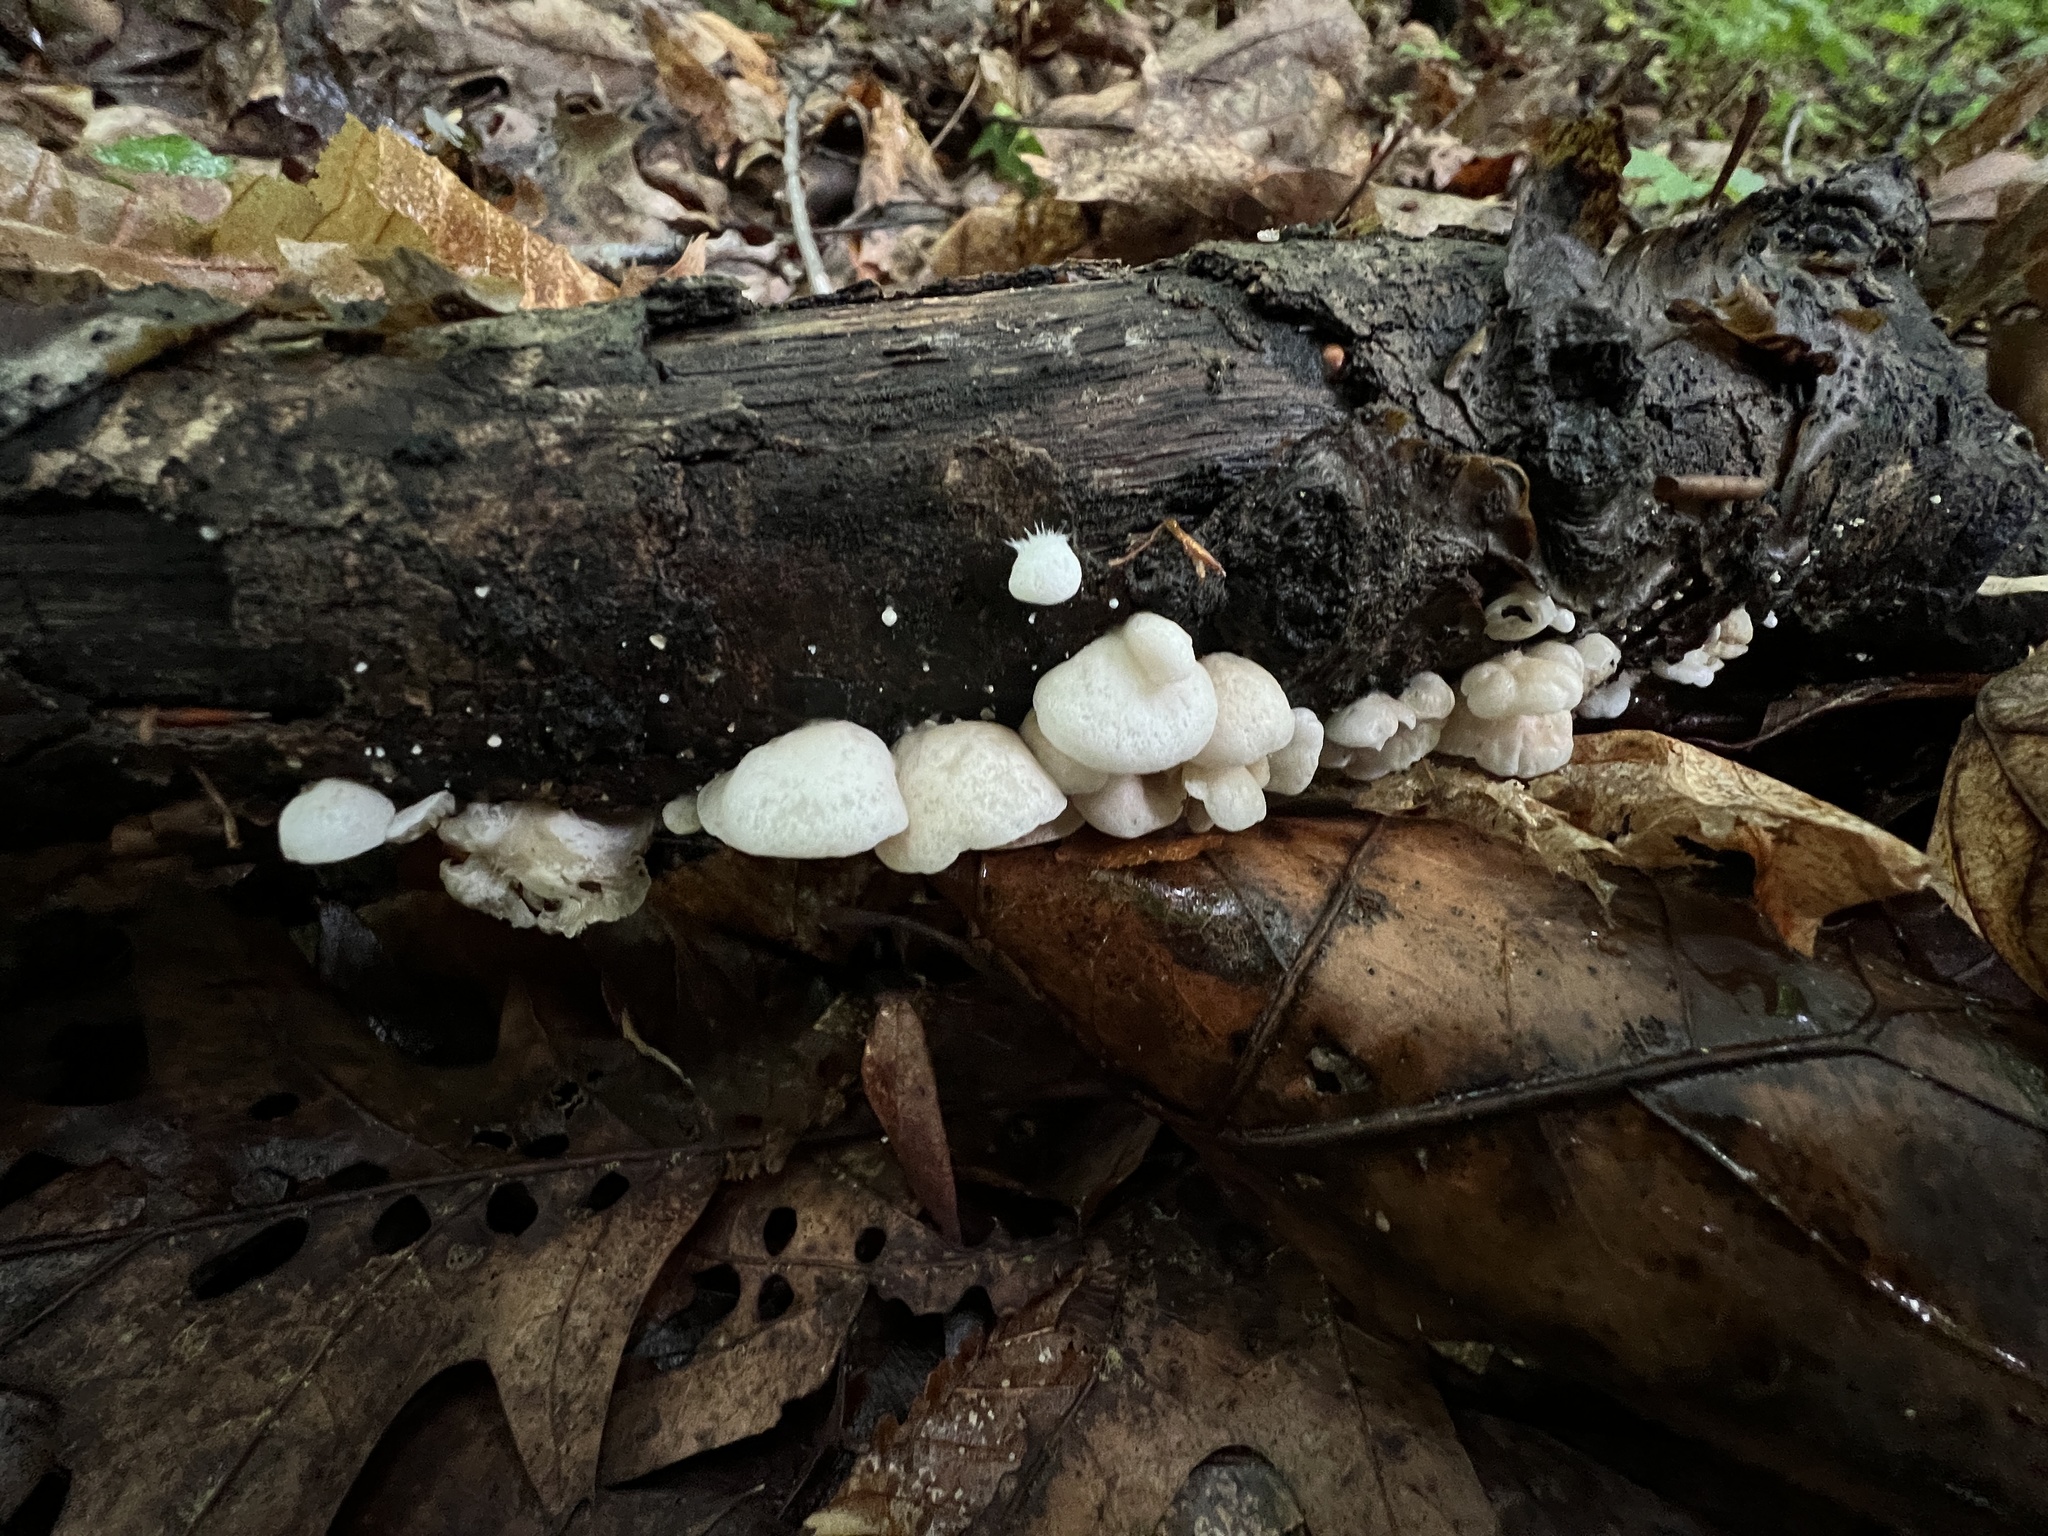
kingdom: Fungi
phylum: Basidiomycota
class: Agaricomycetes
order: Agaricales
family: Crepidotaceae
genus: Crepidotus
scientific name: Crepidotus applanatus
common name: Flat crep
